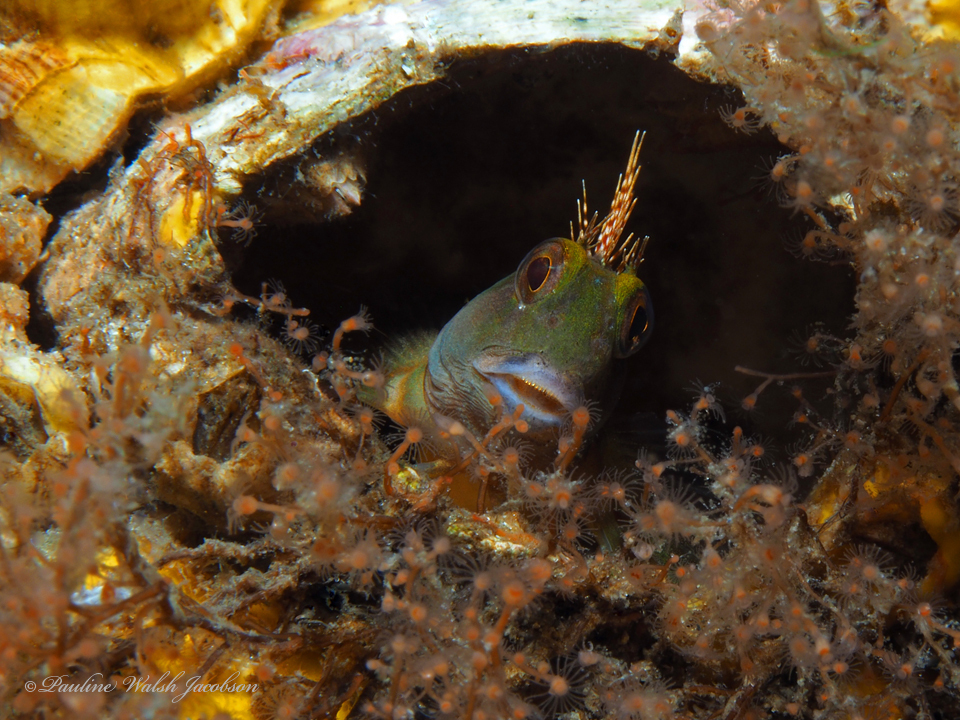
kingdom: Animalia
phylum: Chordata
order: Perciformes
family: Blenniidae
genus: Scartella
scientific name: Scartella cristata
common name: Molly miller
